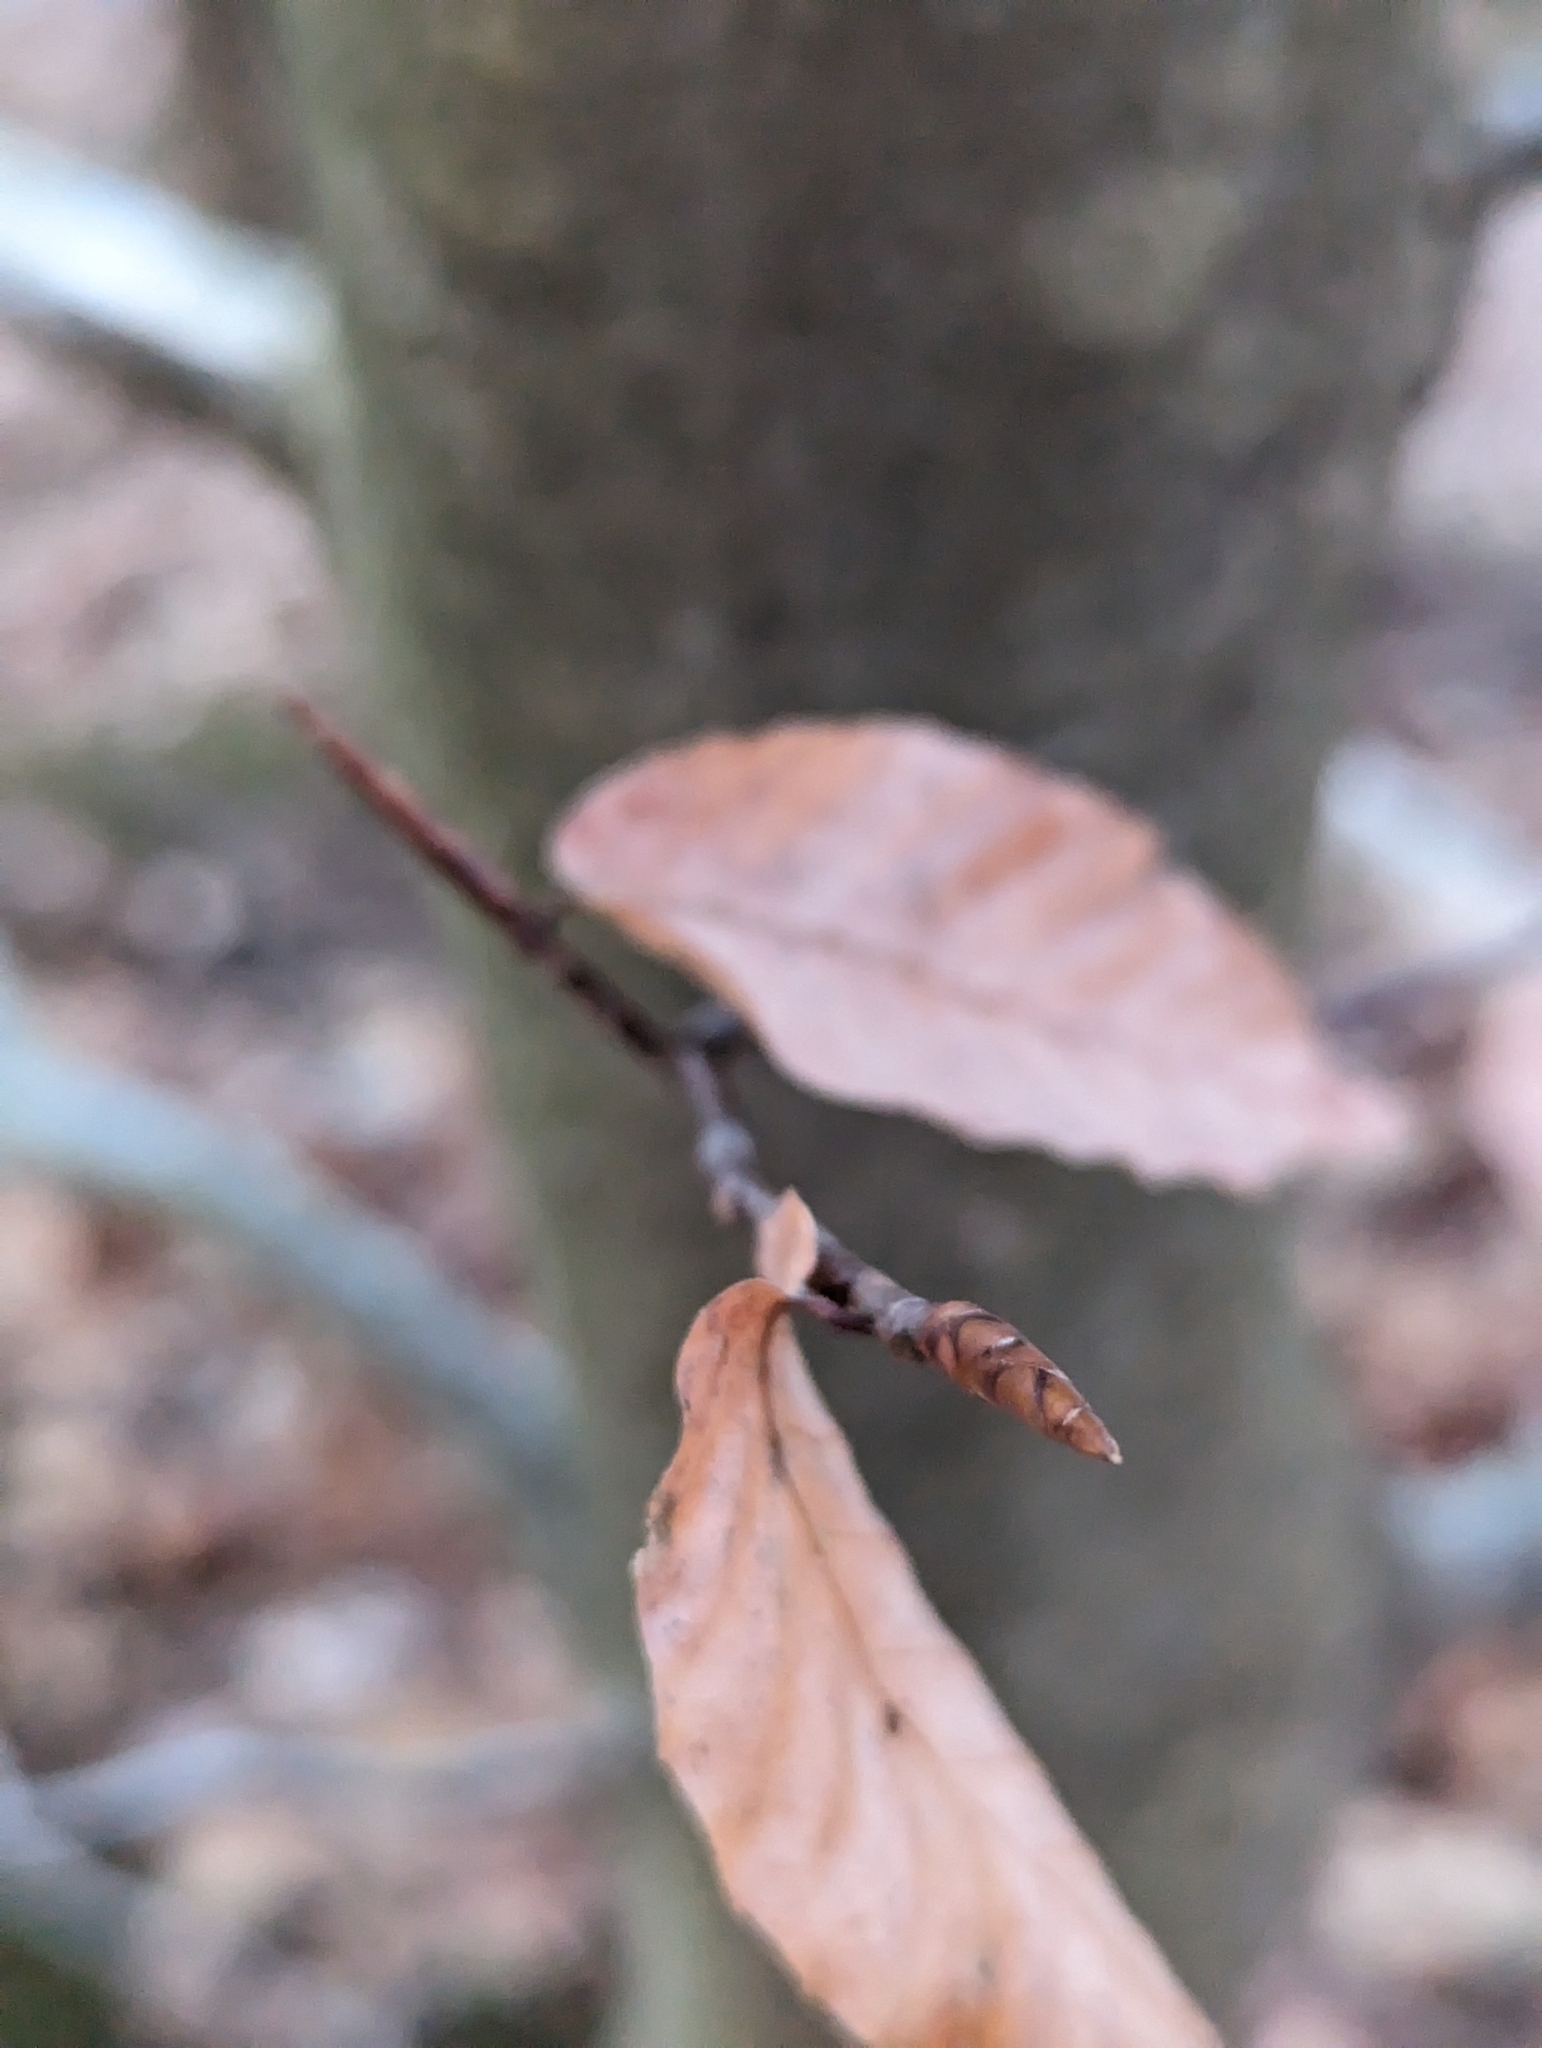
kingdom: Plantae
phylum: Tracheophyta
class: Magnoliopsida
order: Fagales
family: Fagaceae
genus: Fagus
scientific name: Fagus grandifolia
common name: American beech
